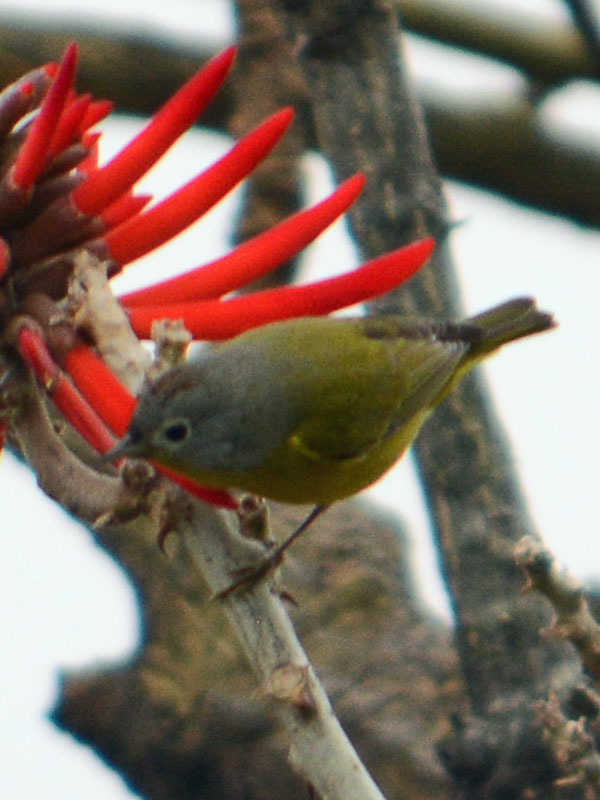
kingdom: Animalia
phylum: Chordata
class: Aves
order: Passeriformes
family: Parulidae
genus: Leiothlypis
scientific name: Leiothlypis ruficapilla
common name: Nashville warbler
